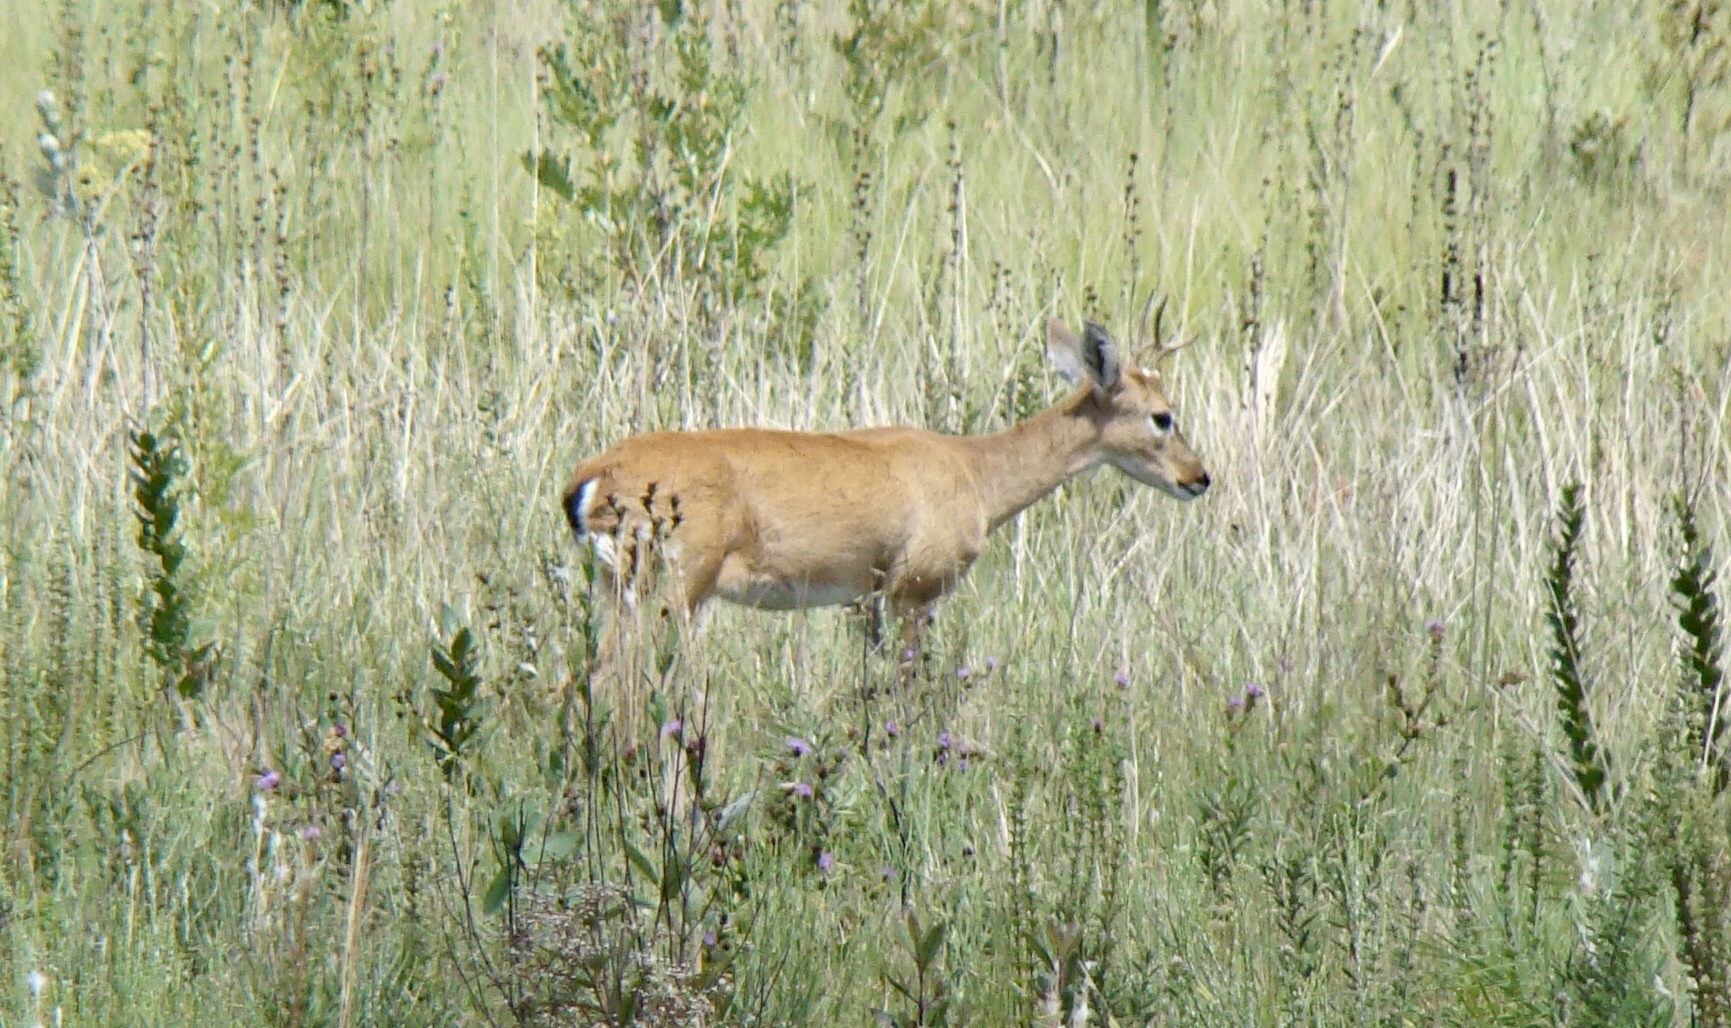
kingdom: Animalia
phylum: Chordata
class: Mammalia
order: Artiodactyla
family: Cervidae
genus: Ozotoceros
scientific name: Ozotoceros bezoarticus
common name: Pampas deer
